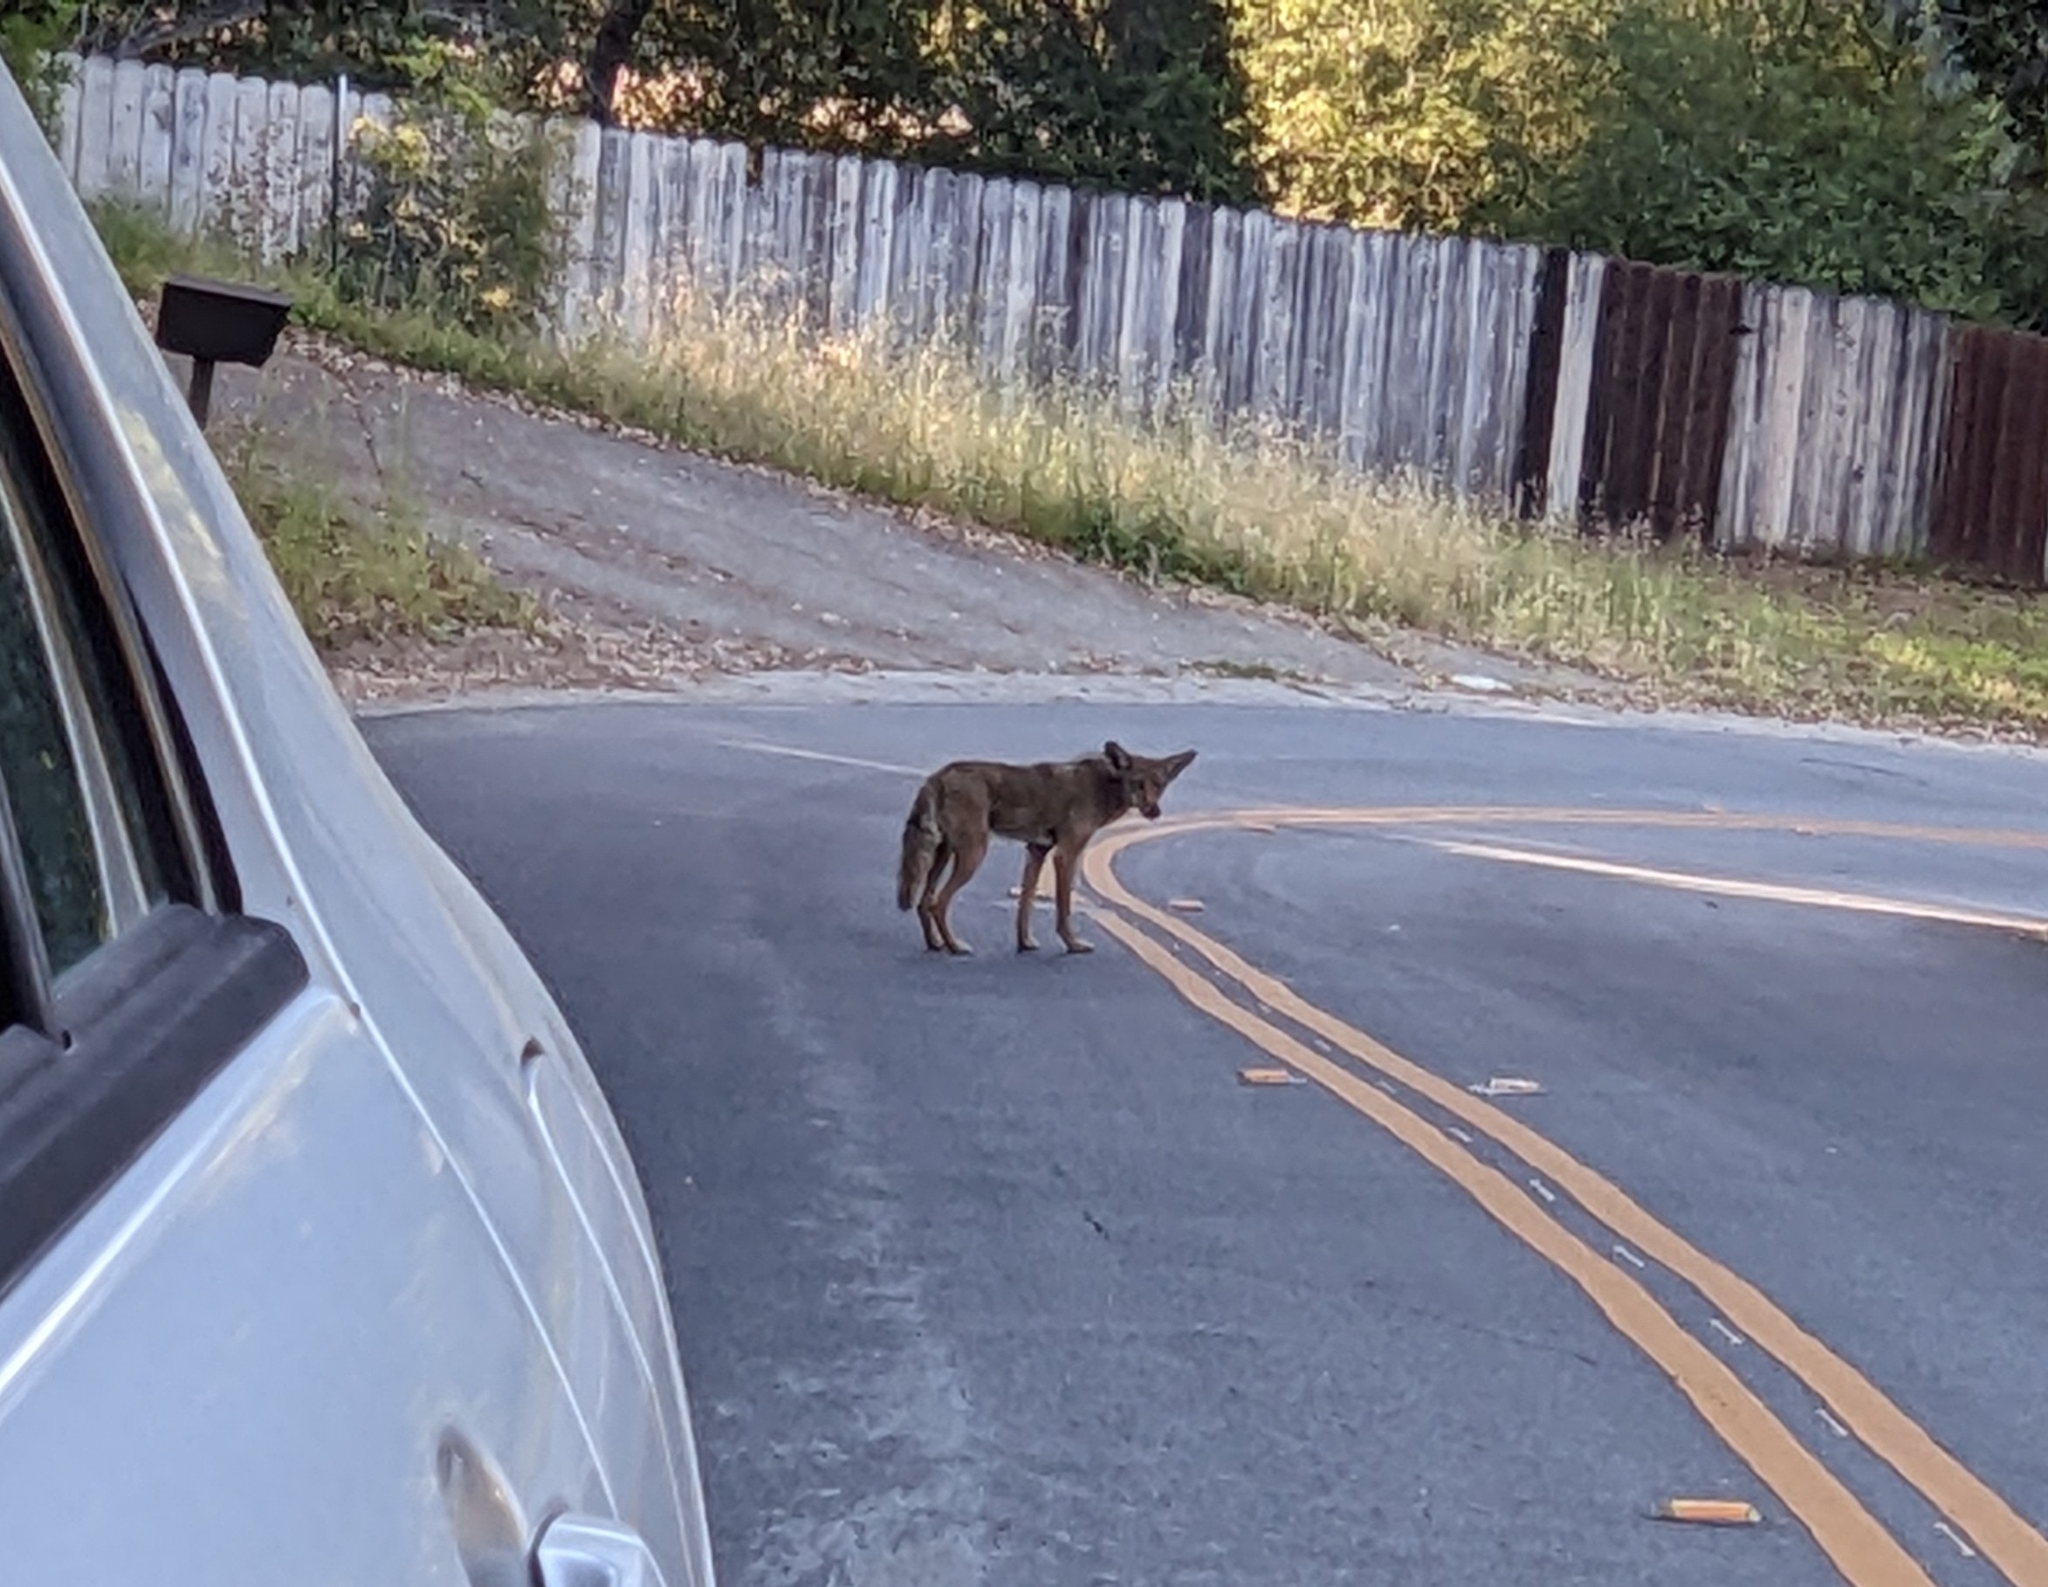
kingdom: Animalia
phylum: Chordata
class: Mammalia
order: Carnivora
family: Canidae
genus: Canis
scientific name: Canis latrans
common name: Coyote
